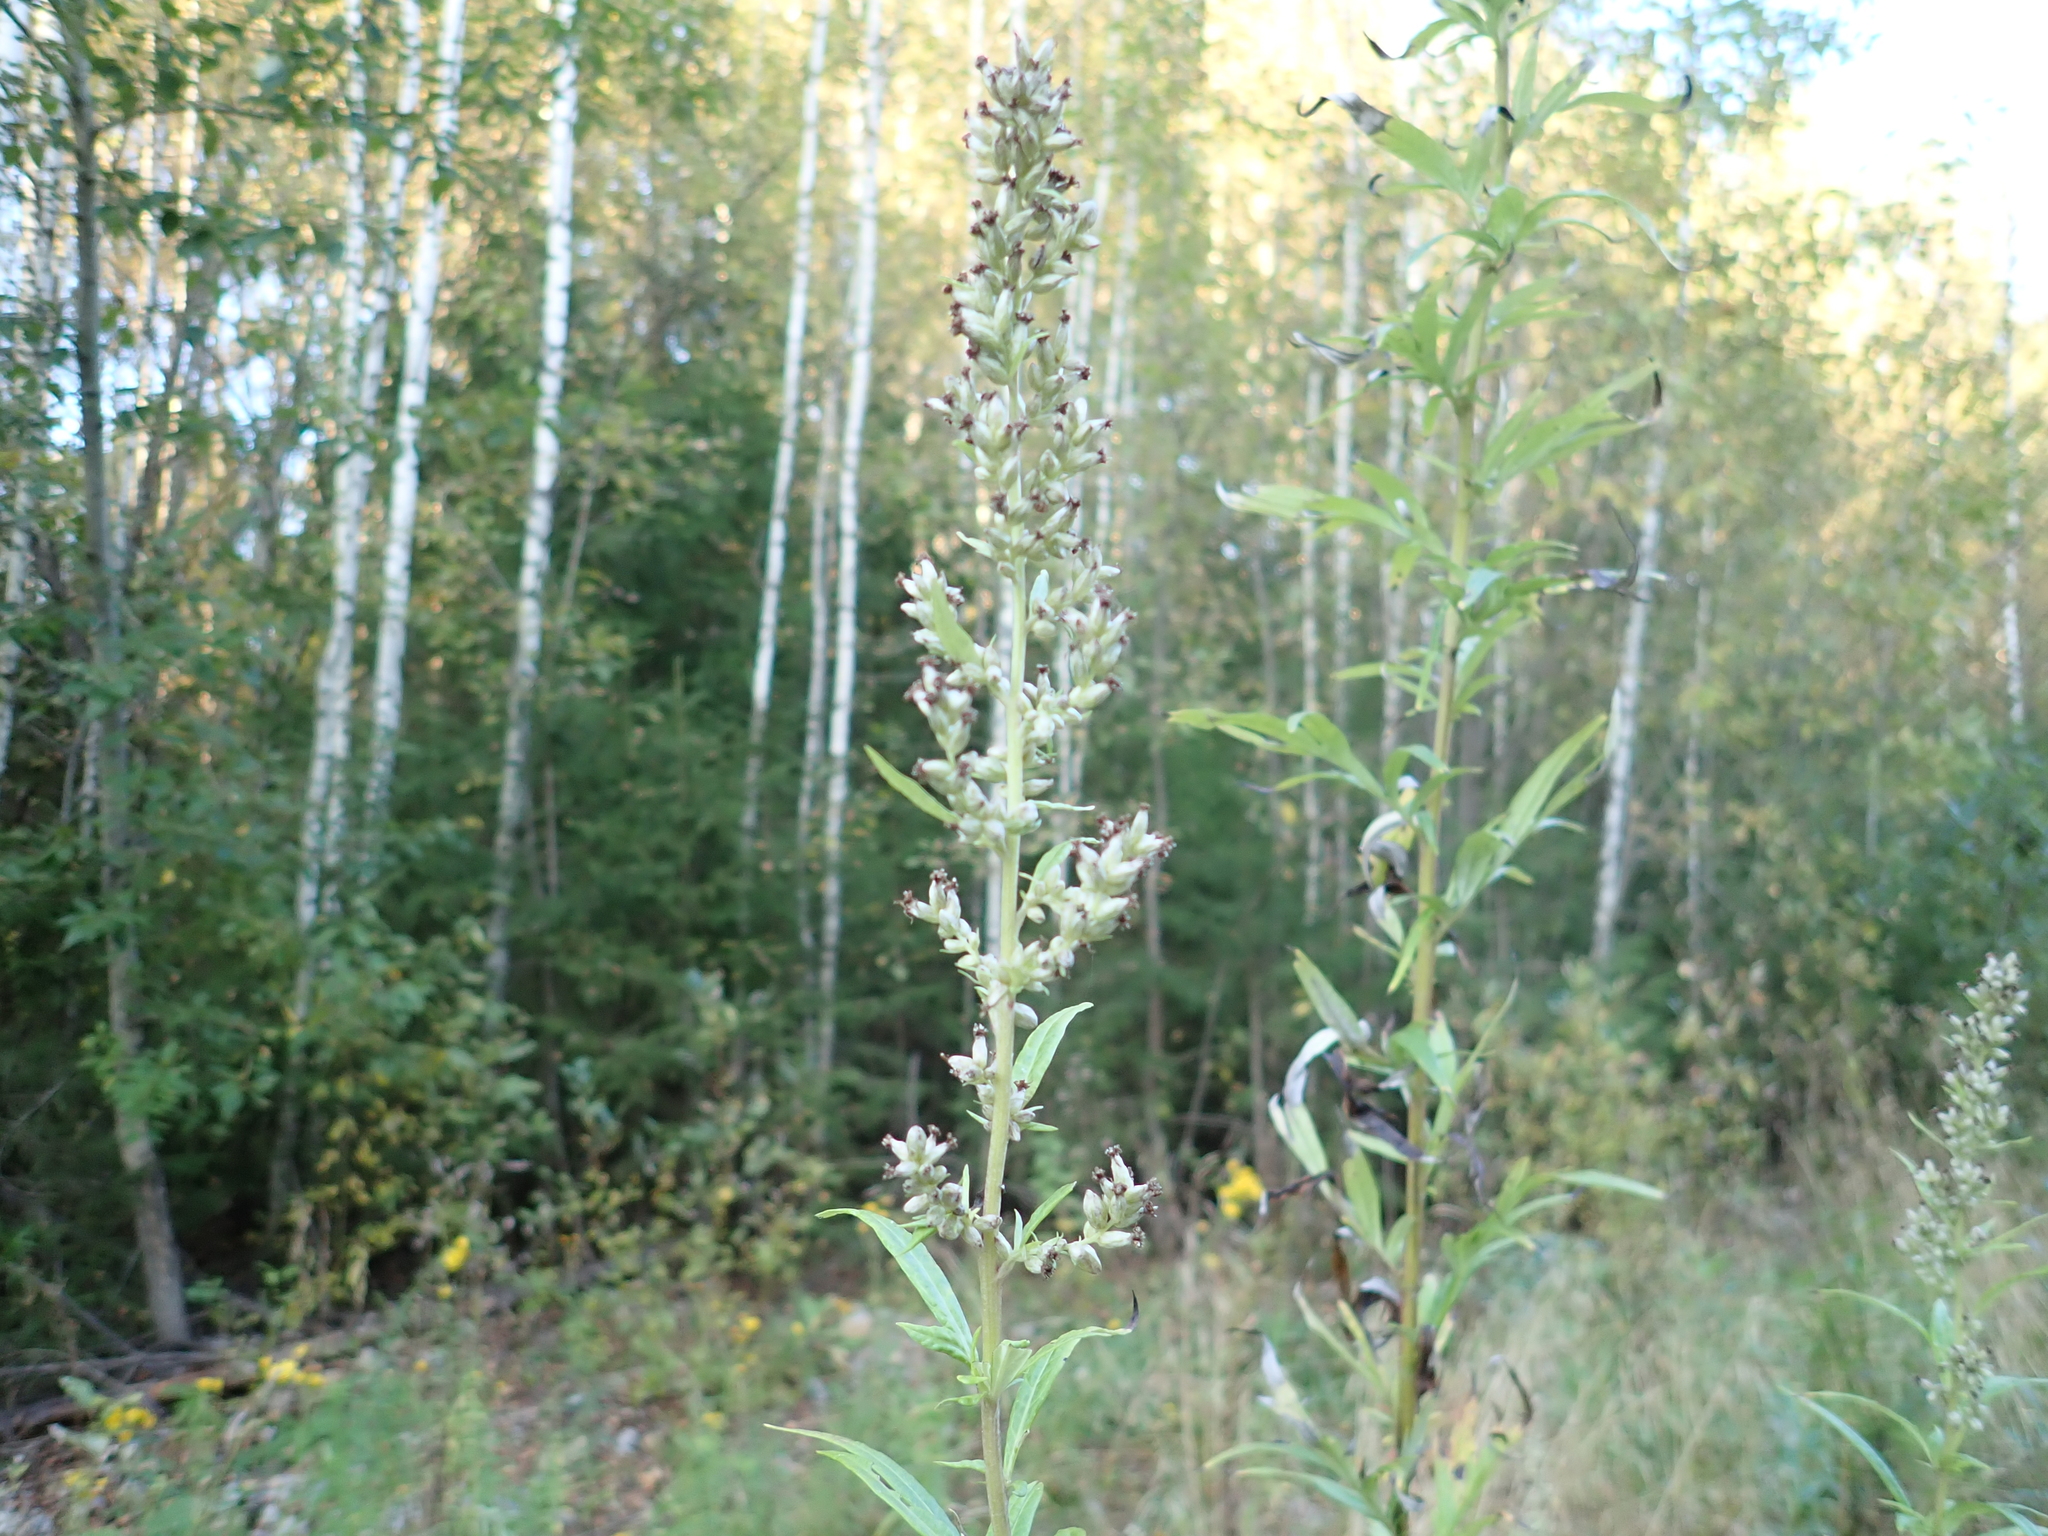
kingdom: Plantae
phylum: Tracheophyta
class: Magnoliopsida
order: Asterales
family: Asteraceae
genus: Artemisia
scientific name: Artemisia vulgaris
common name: Mugwort
